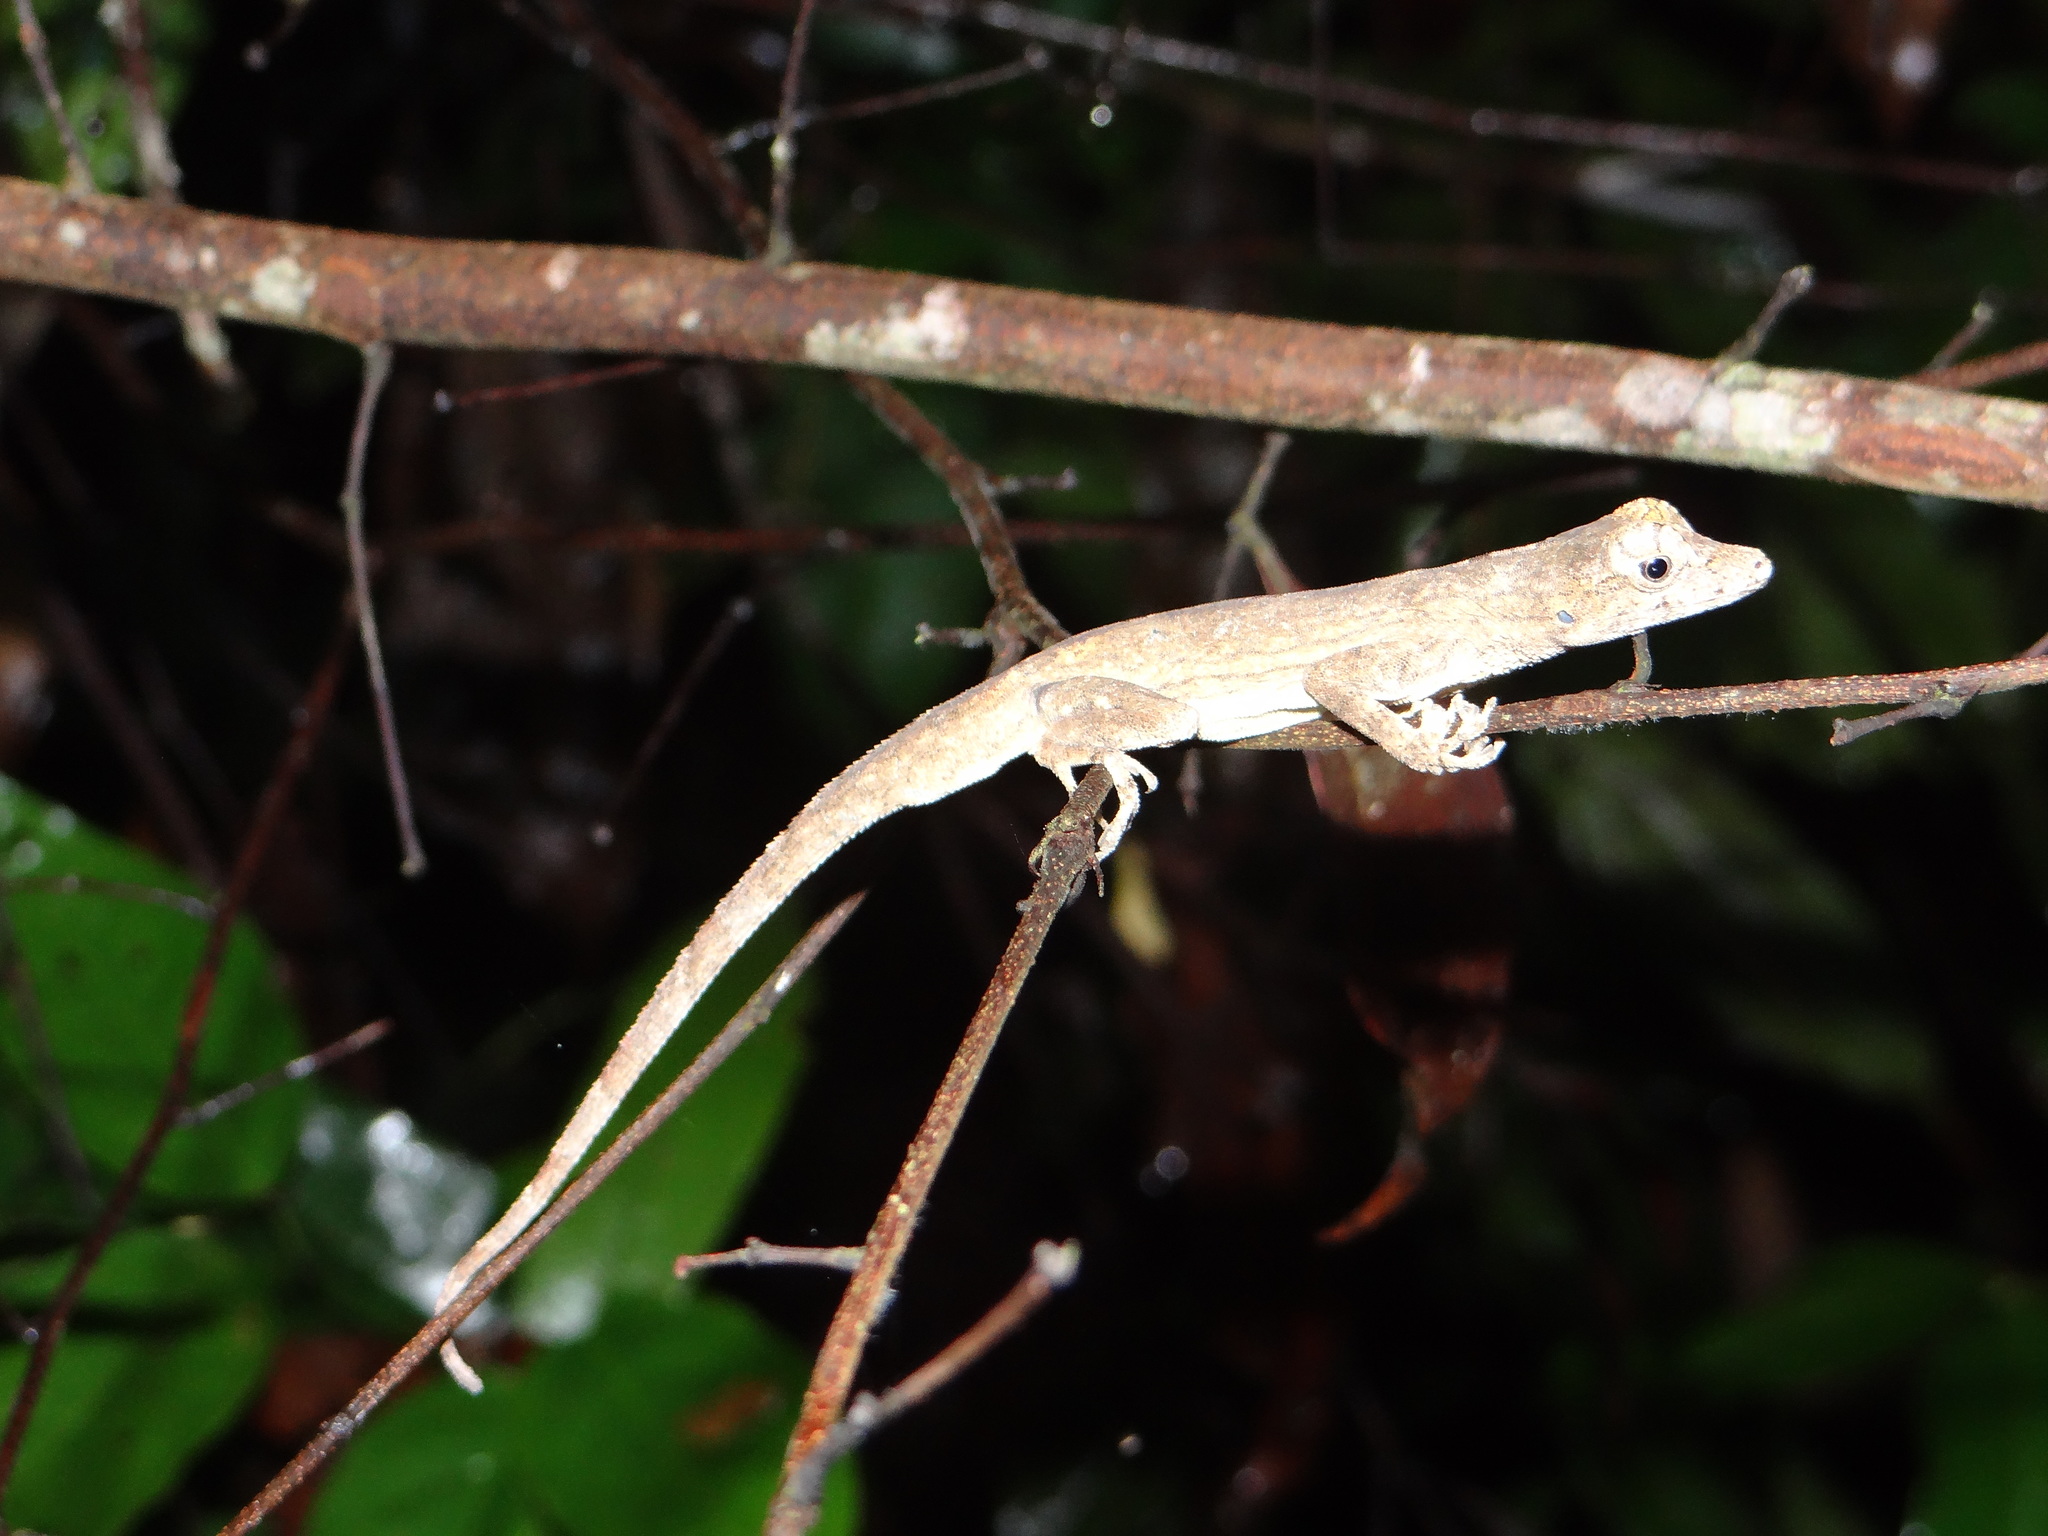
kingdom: Animalia
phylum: Chordata
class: Squamata
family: Dactyloidae
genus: Anolis
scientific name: Anolis ortonii
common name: Bark anole
